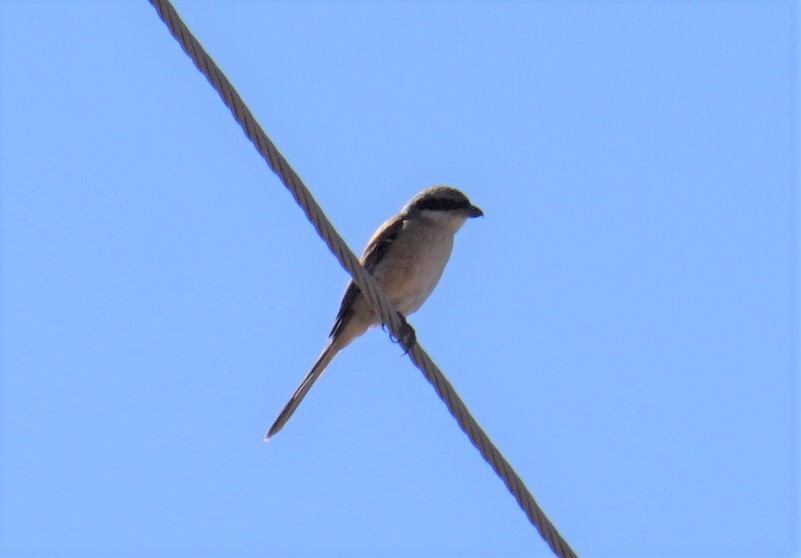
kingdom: Animalia
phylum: Chordata
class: Aves
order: Passeriformes
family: Laniidae
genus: Lanius
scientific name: Lanius schach
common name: Long-tailed shrike
